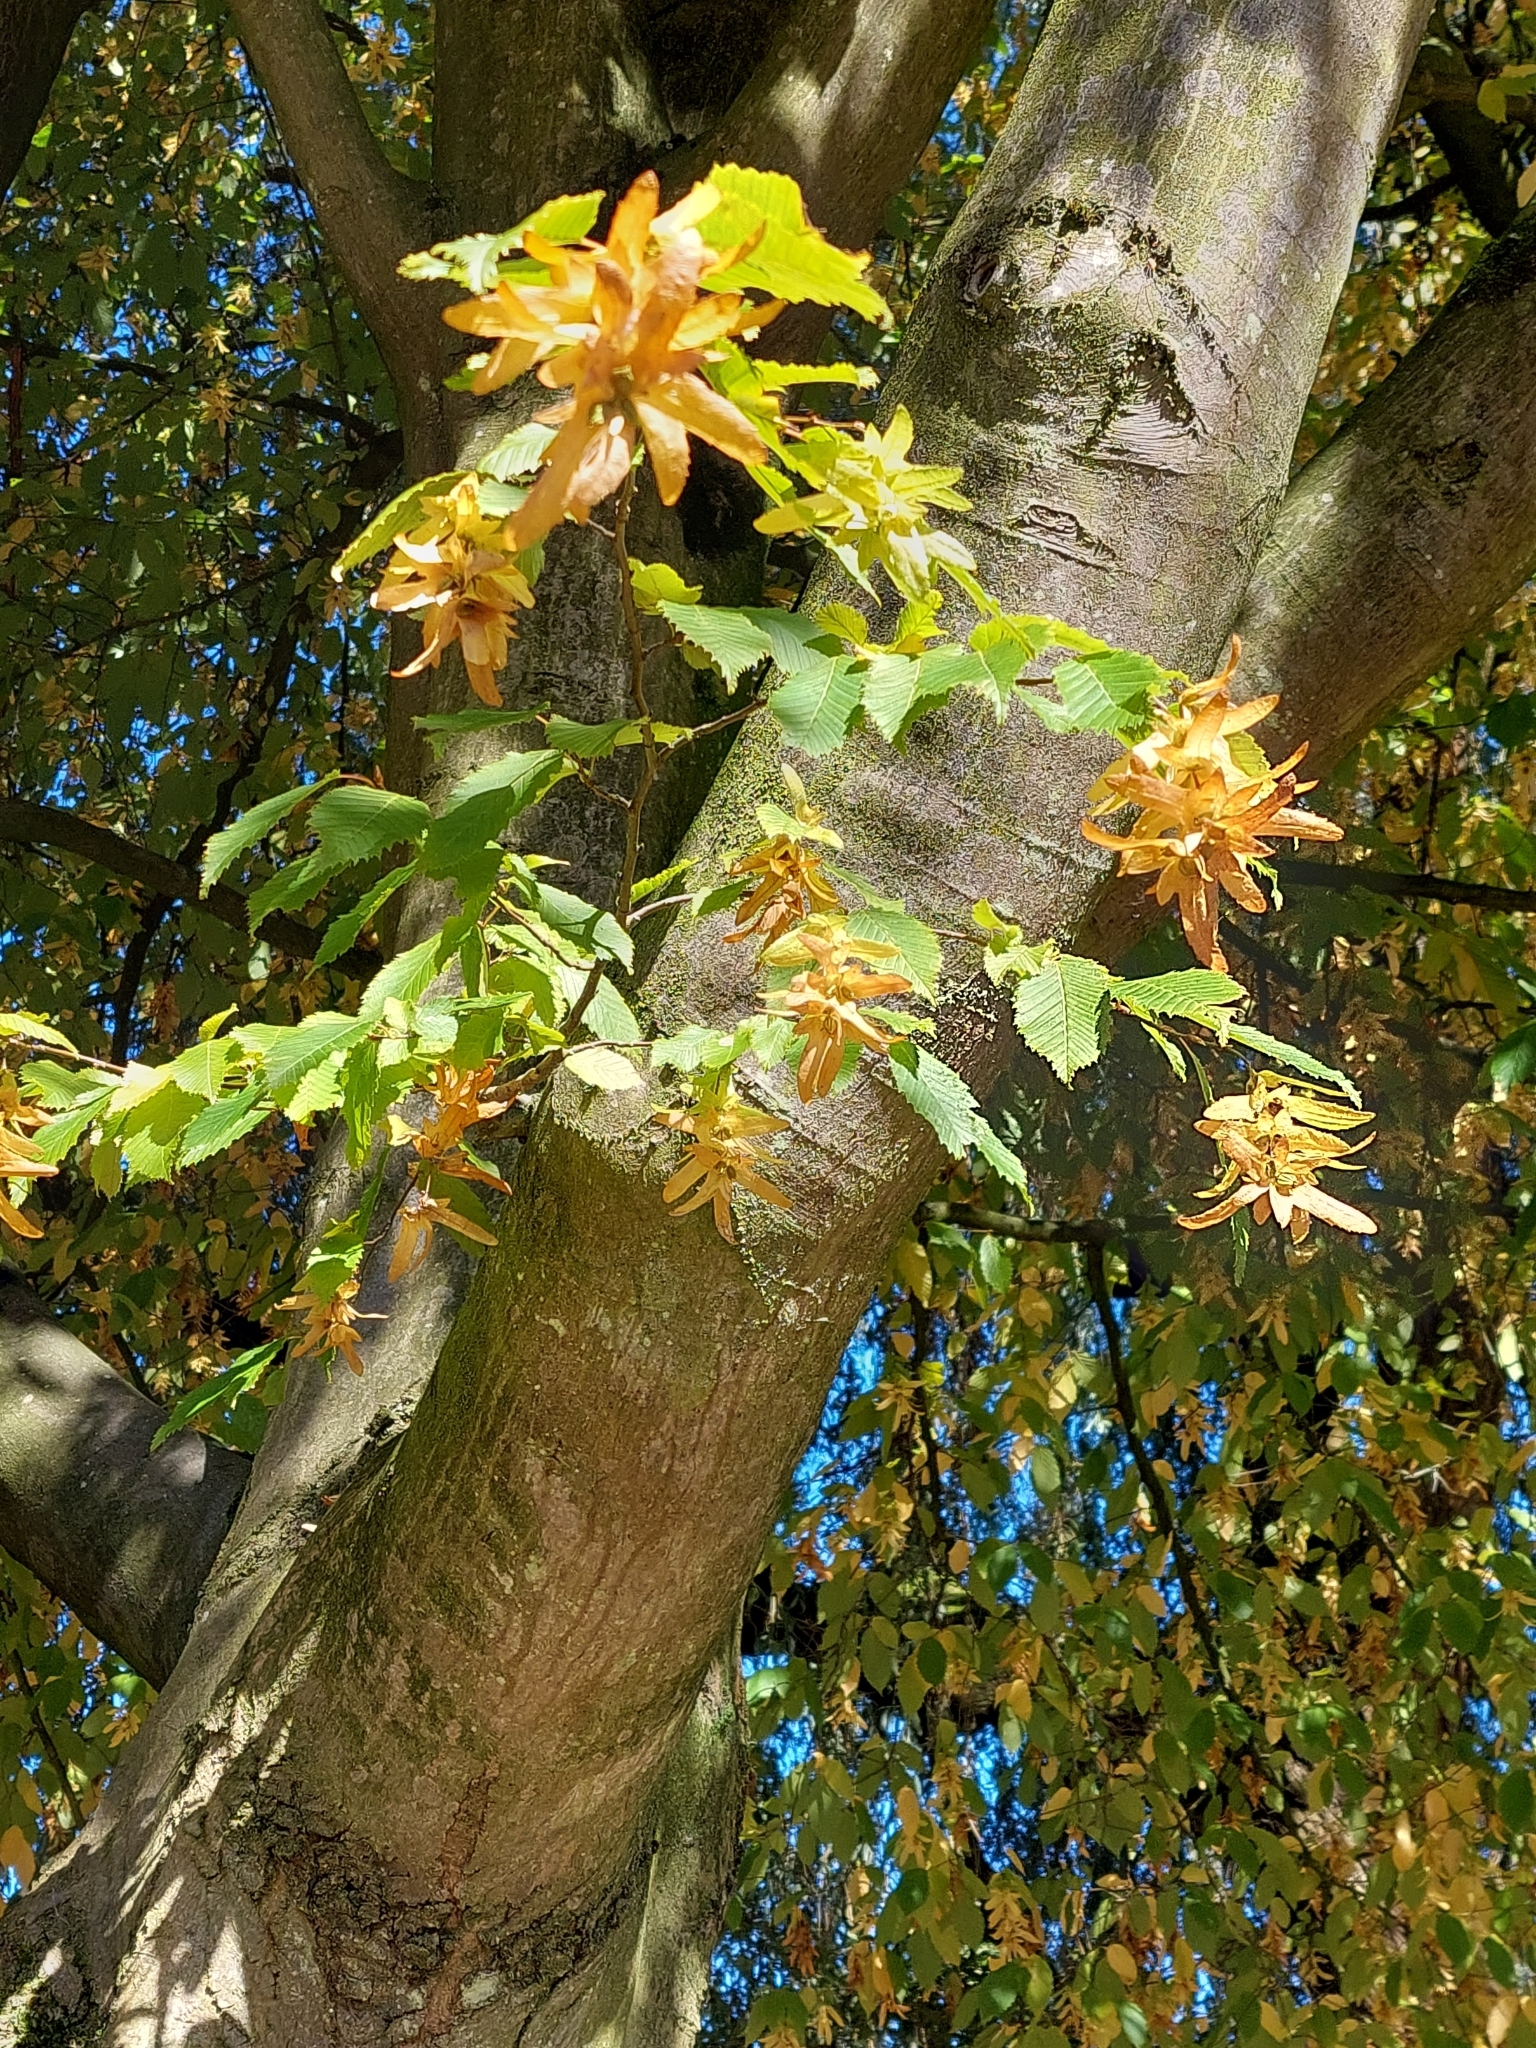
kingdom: Plantae
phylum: Tracheophyta
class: Magnoliopsida
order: Fagales
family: Betulaceae
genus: Carpinus
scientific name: Carpinus betulus
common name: Hornbeam
